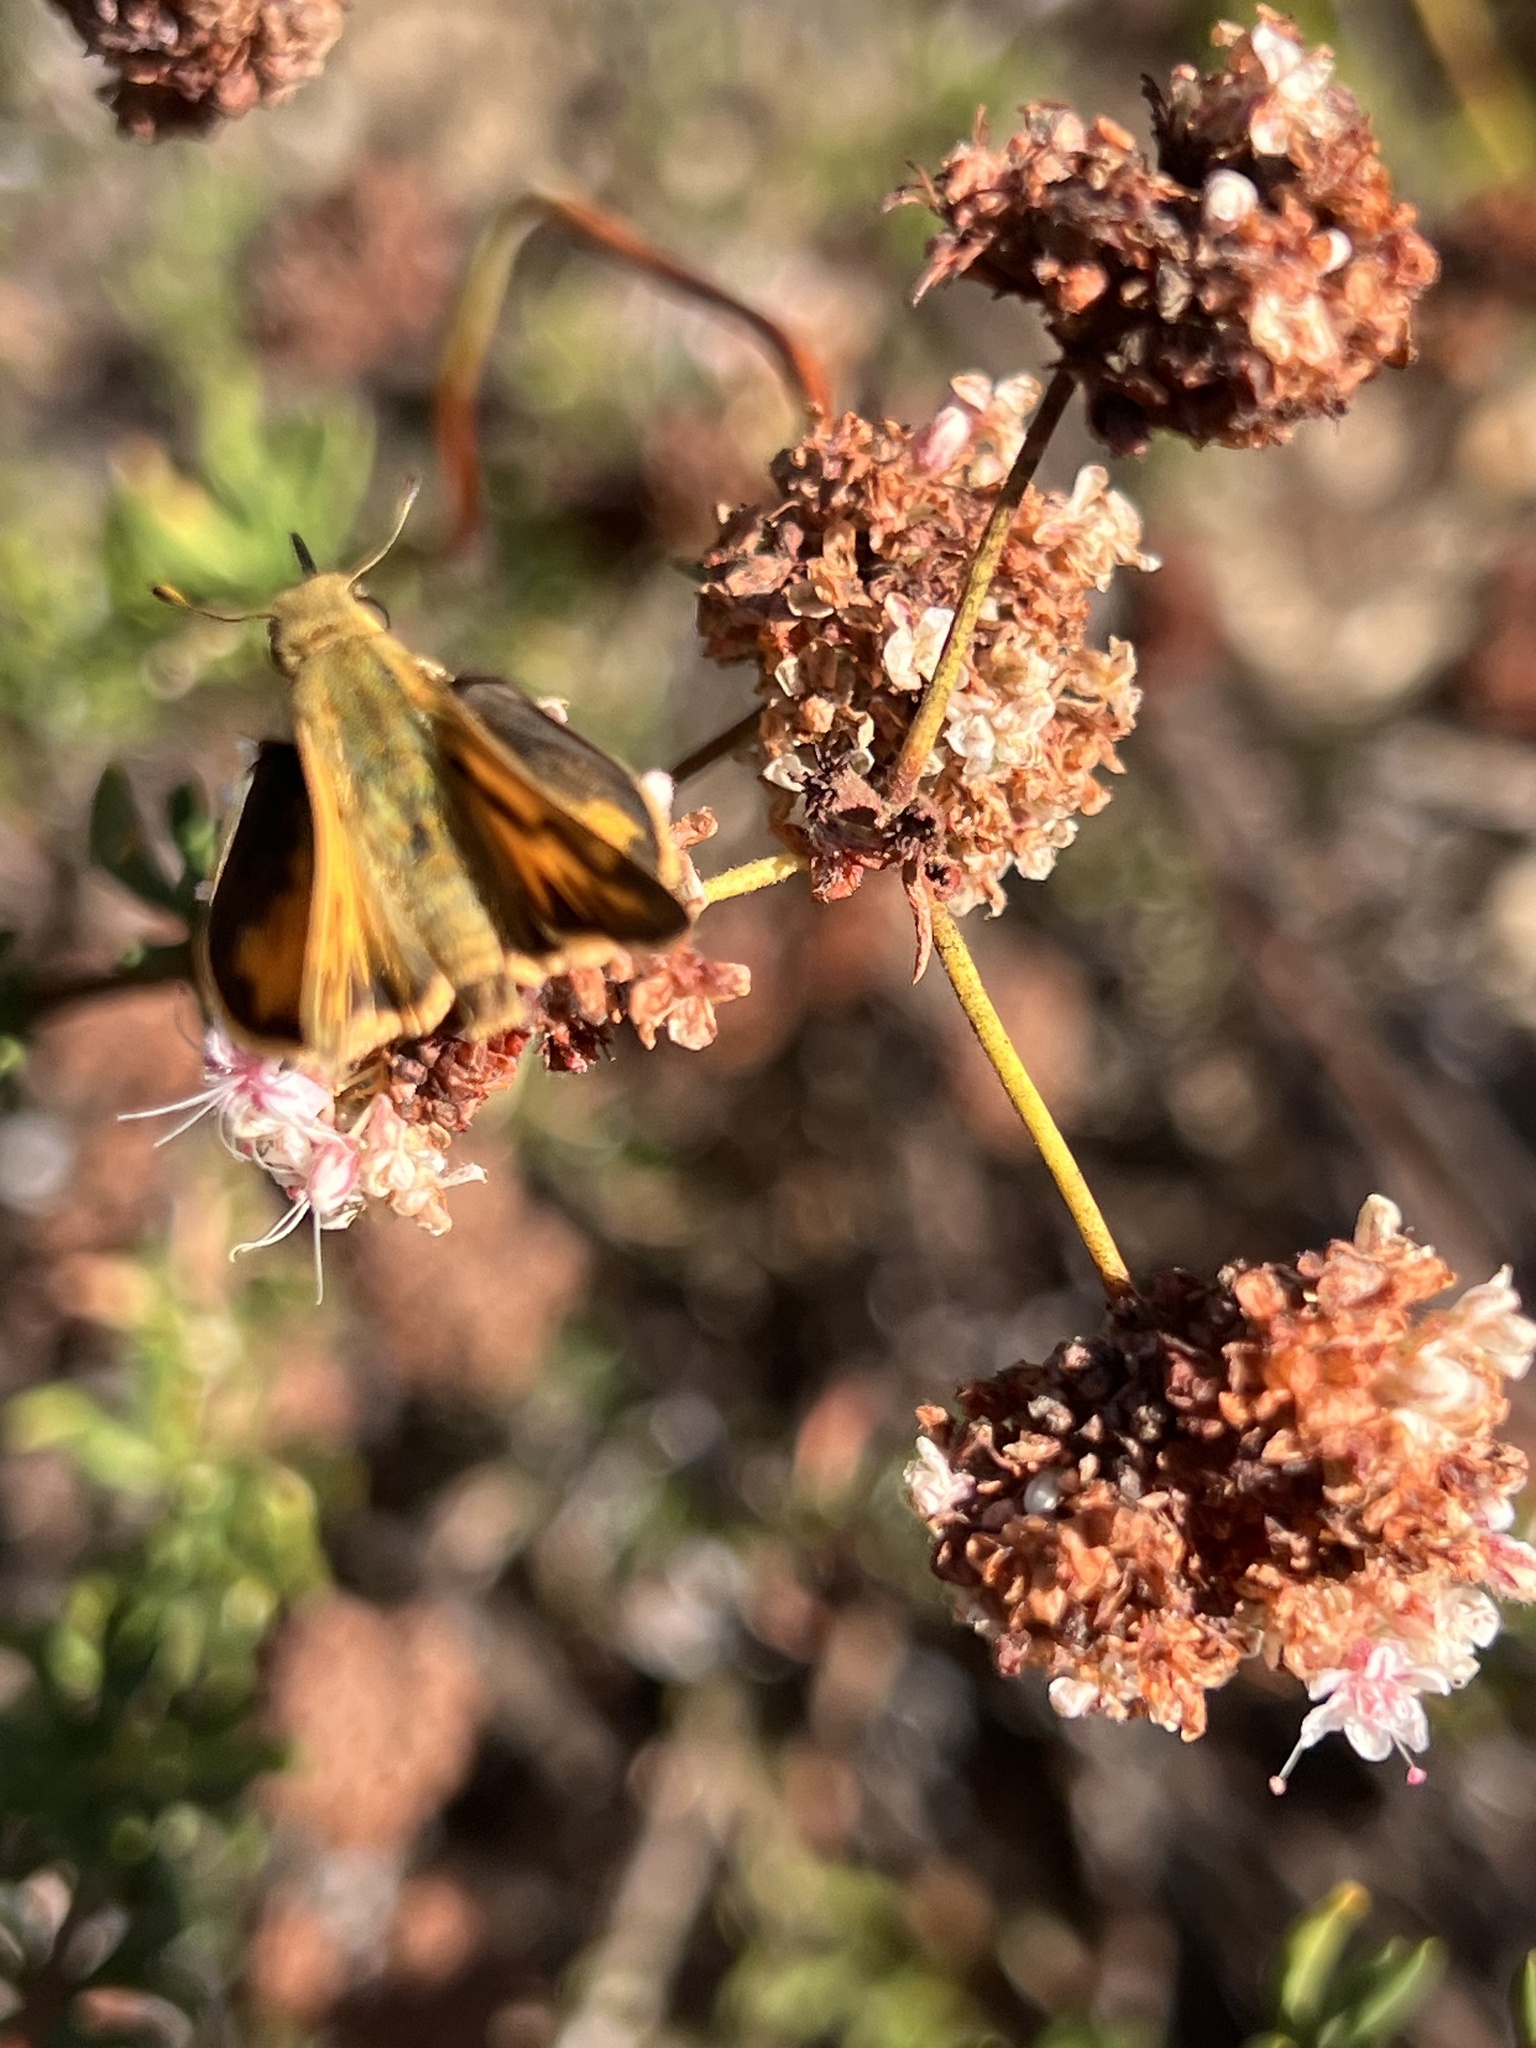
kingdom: Animalia
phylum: Arthropoda
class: Insecta
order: Lepidoptera
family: Hesperiidae
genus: Hylephila
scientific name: Hylephila phyleus
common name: Fiery skipper
